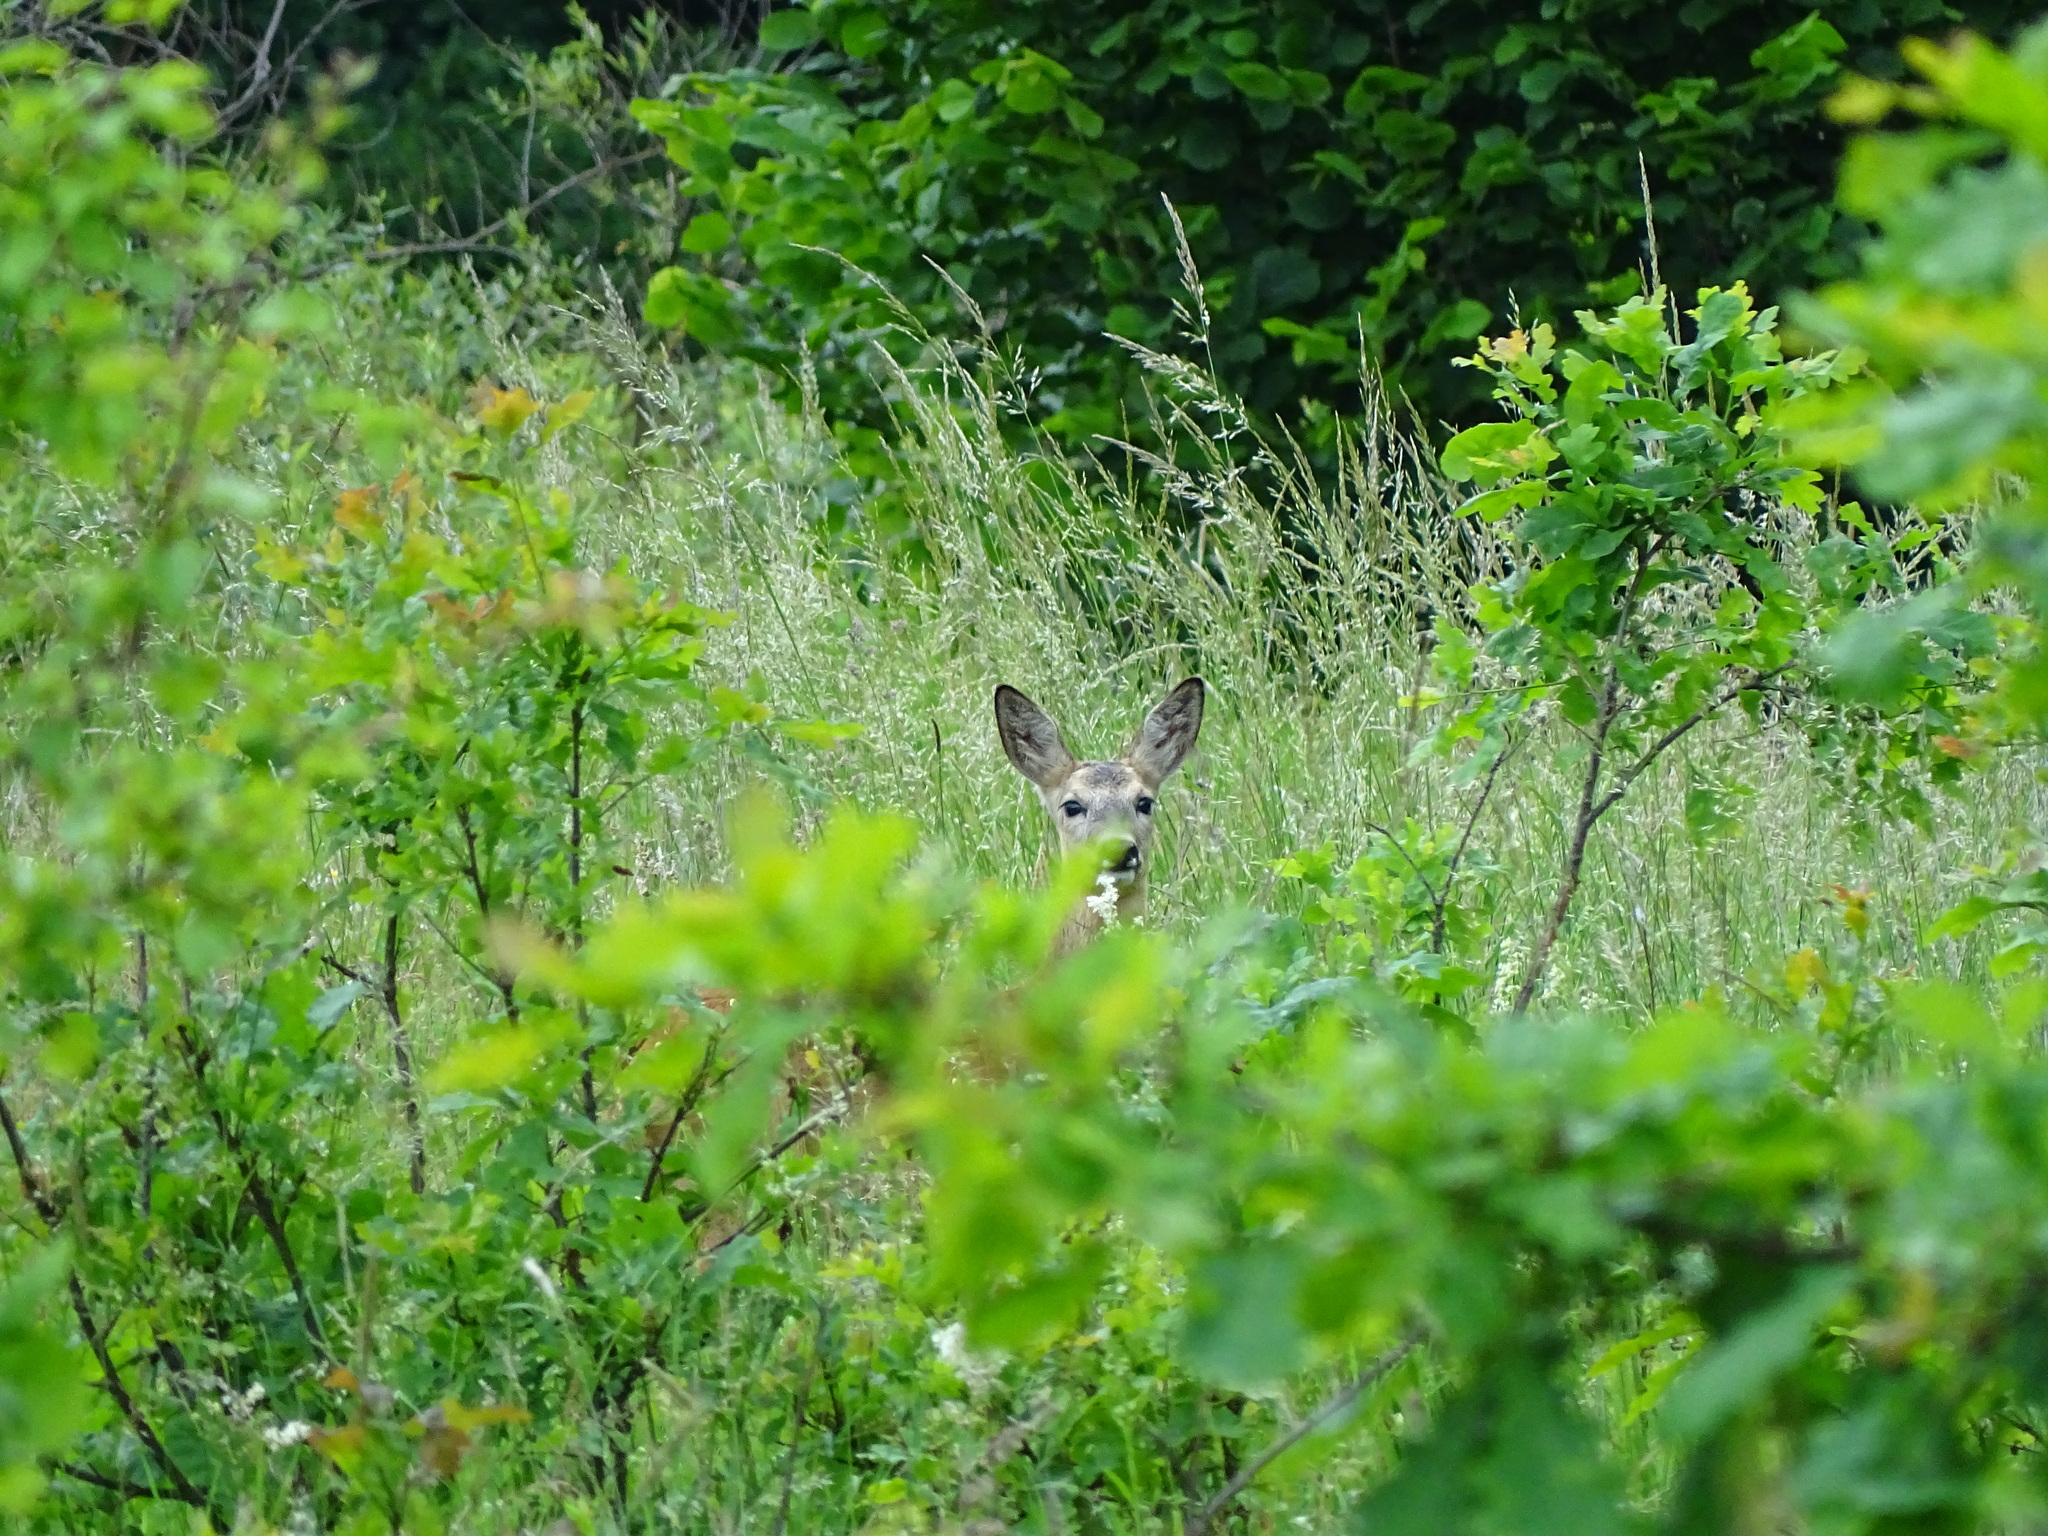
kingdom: Animalia
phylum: Chordata
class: Mammalia
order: Artiodactyla
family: Cervidae
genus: Capreolus
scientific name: Capreolus capreolus
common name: Western roe deer
